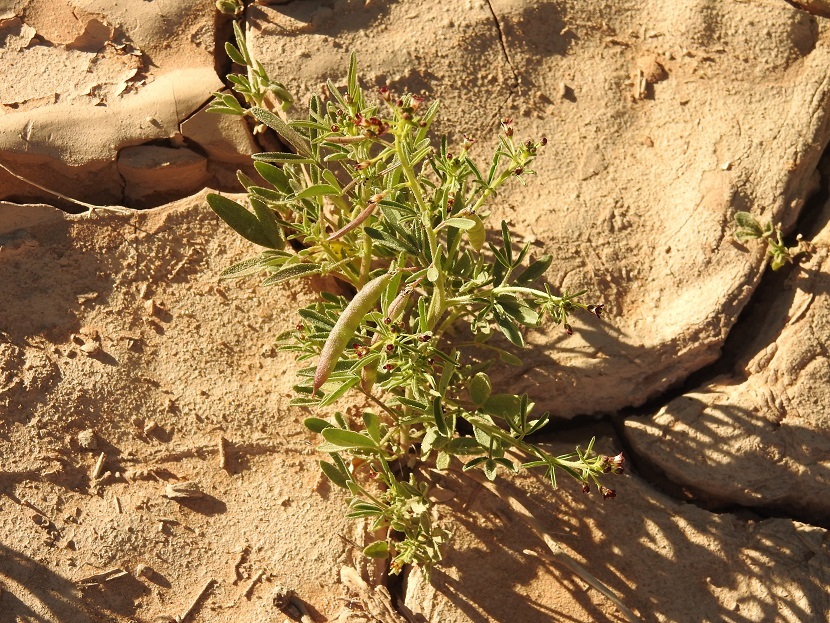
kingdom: Plantae
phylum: Tracheophyta
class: Magnoliopsida
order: Brassicales
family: Cleomaceae
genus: Cleome
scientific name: Cleome amblyocarpa
